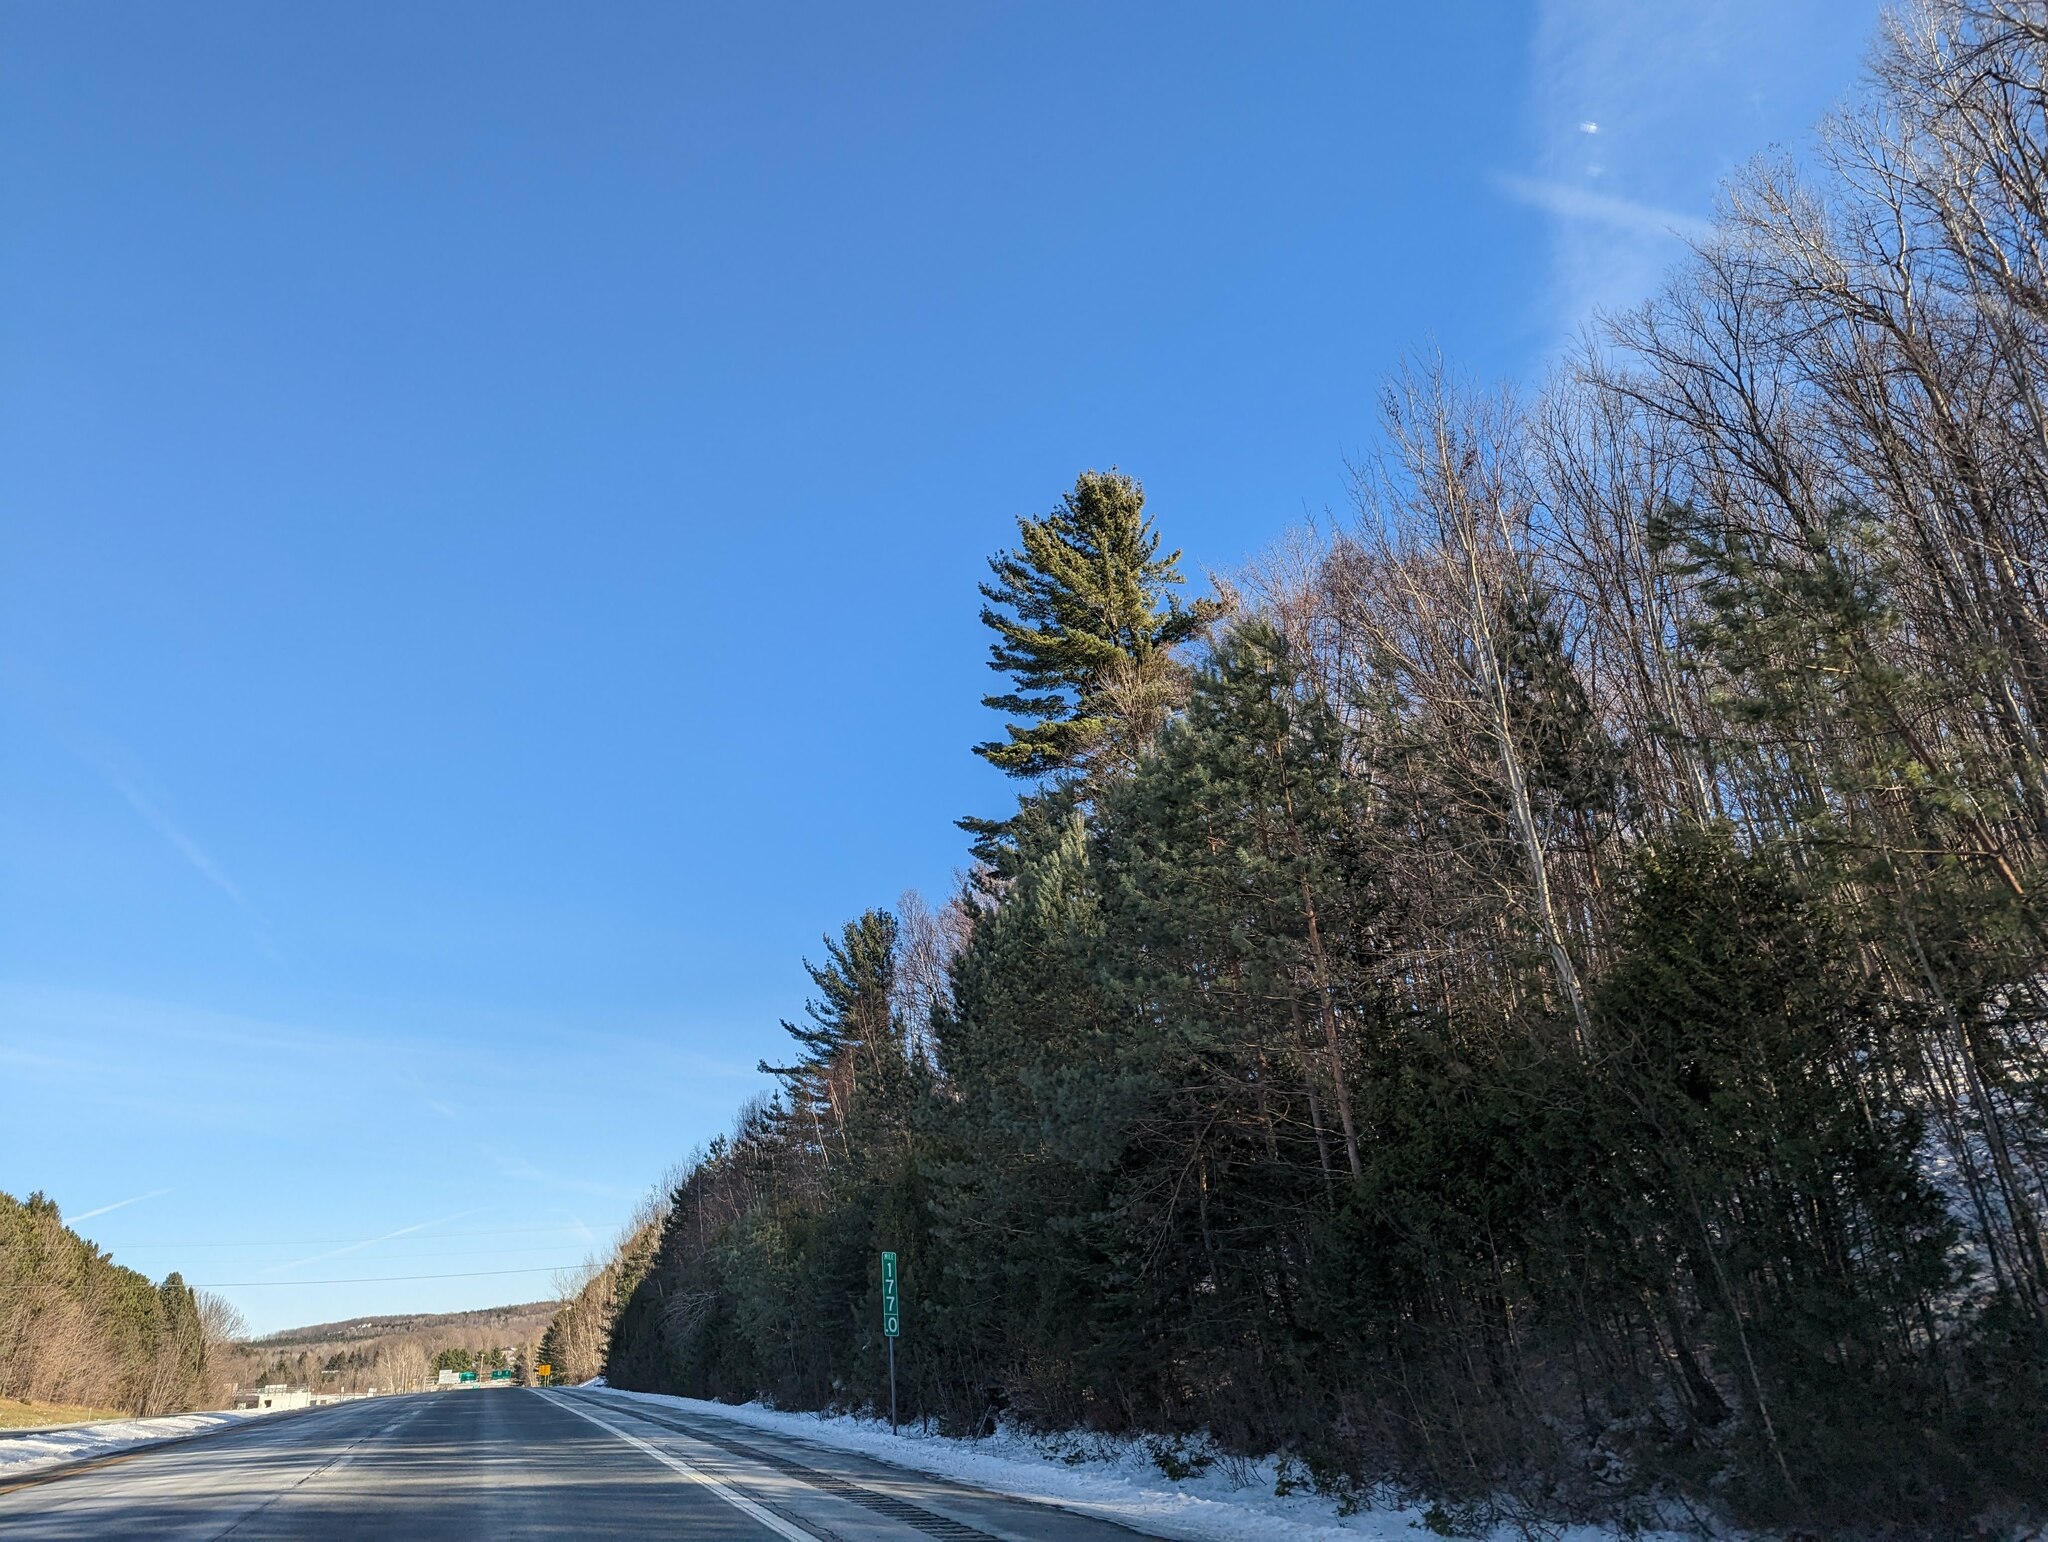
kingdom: Plantae
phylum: Tracheophyta
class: Pinopsida
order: Pinales
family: Pinaceae
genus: Pinus
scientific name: Pinus strobus
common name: Weymouth pine
